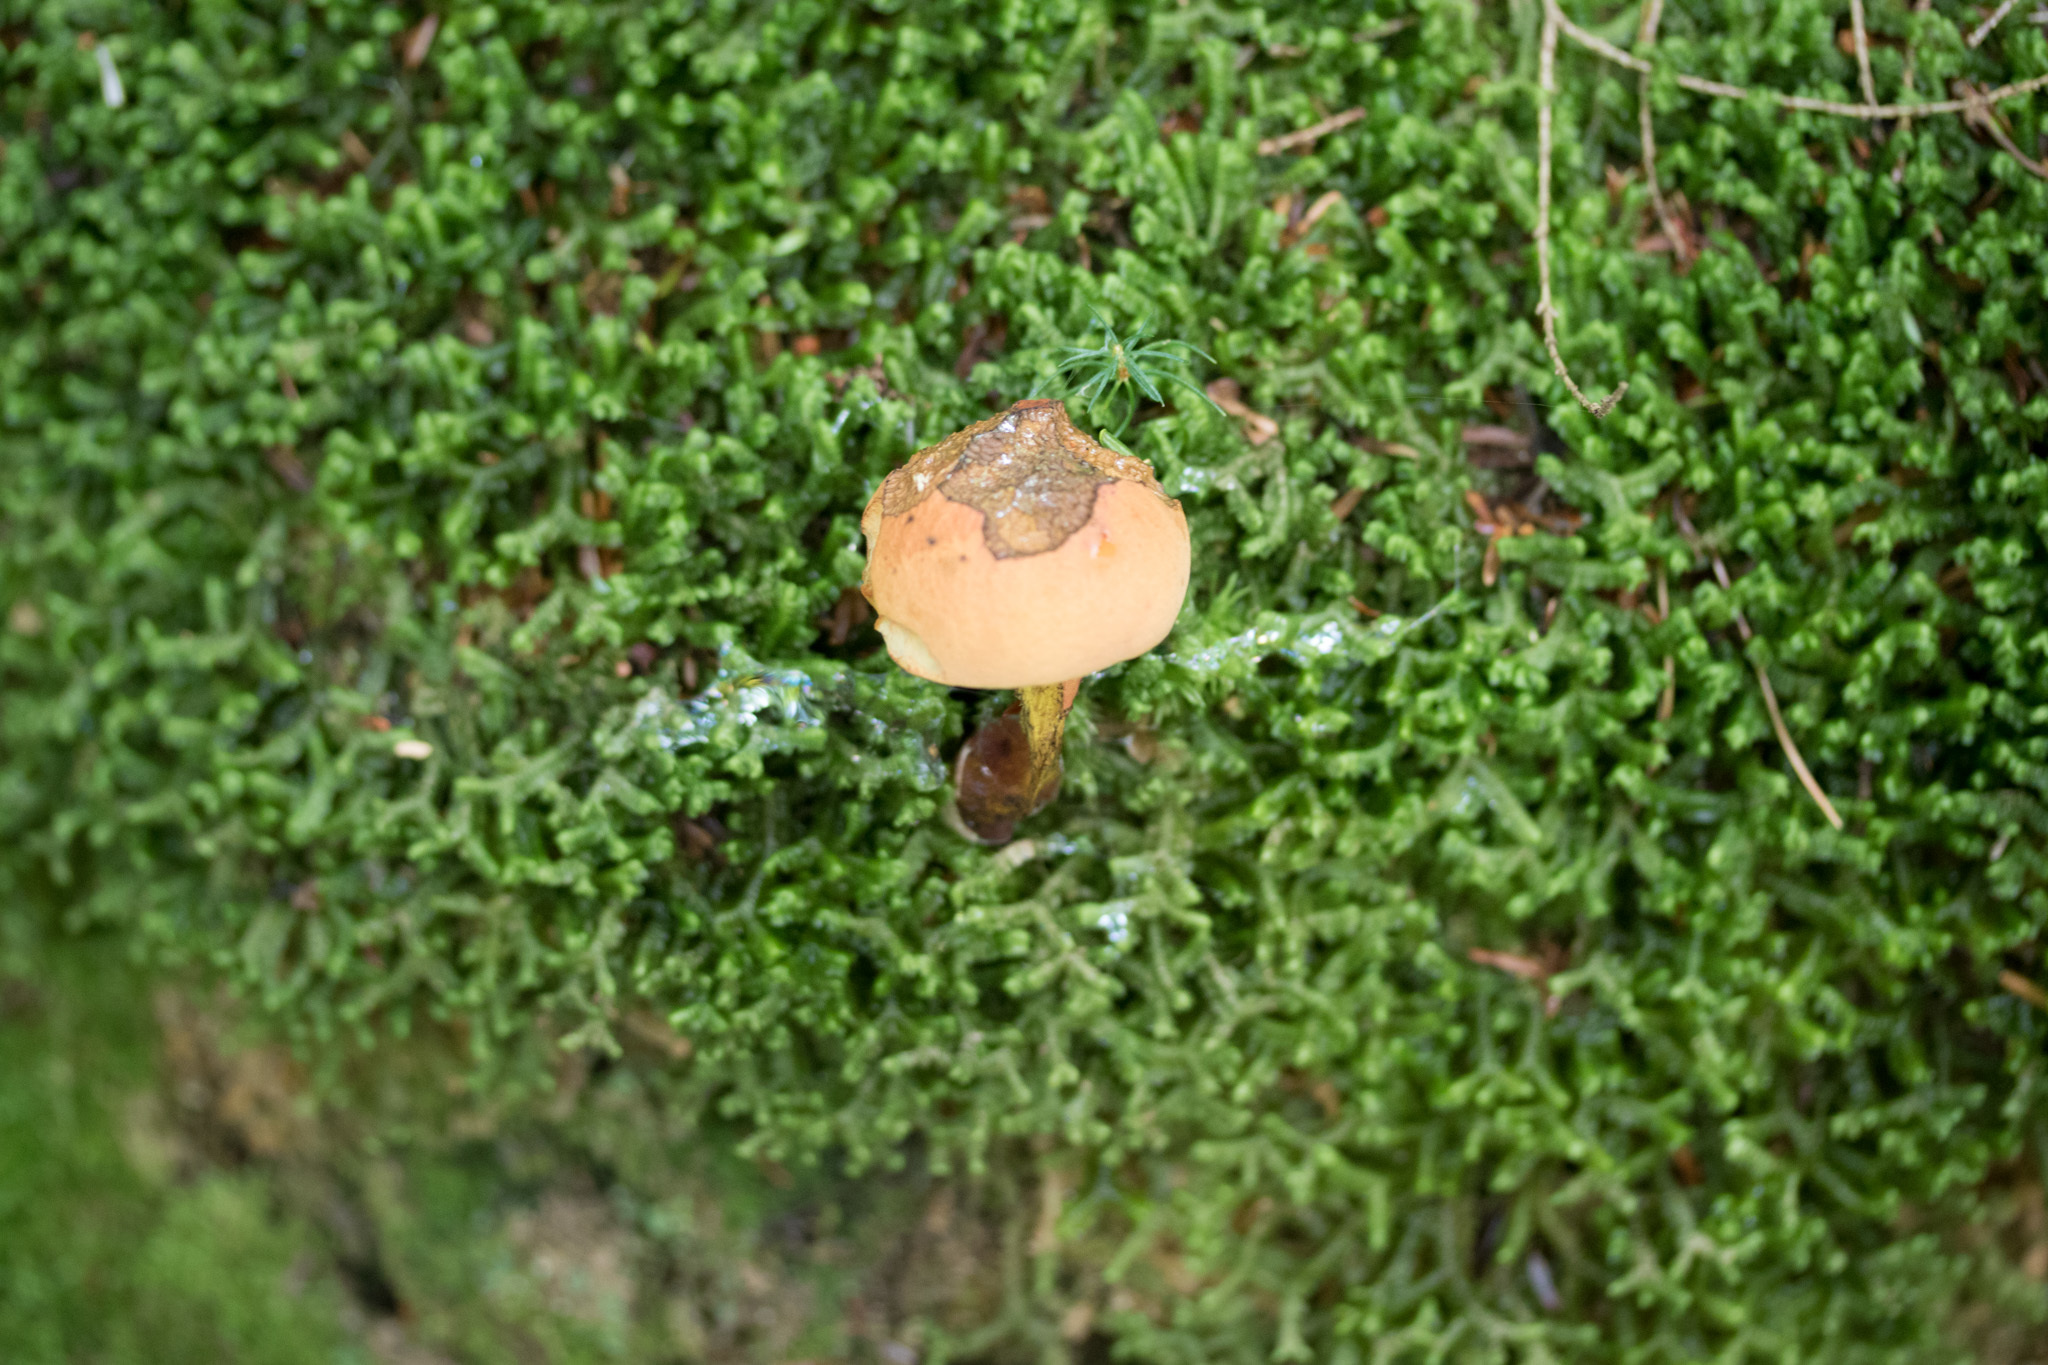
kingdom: Fungi
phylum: Basidiomycota
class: Agaricomycetes
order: Boletales
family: Boletaceae
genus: Boletus
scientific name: Boletus subvelutipes
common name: Red-mouth bolete
